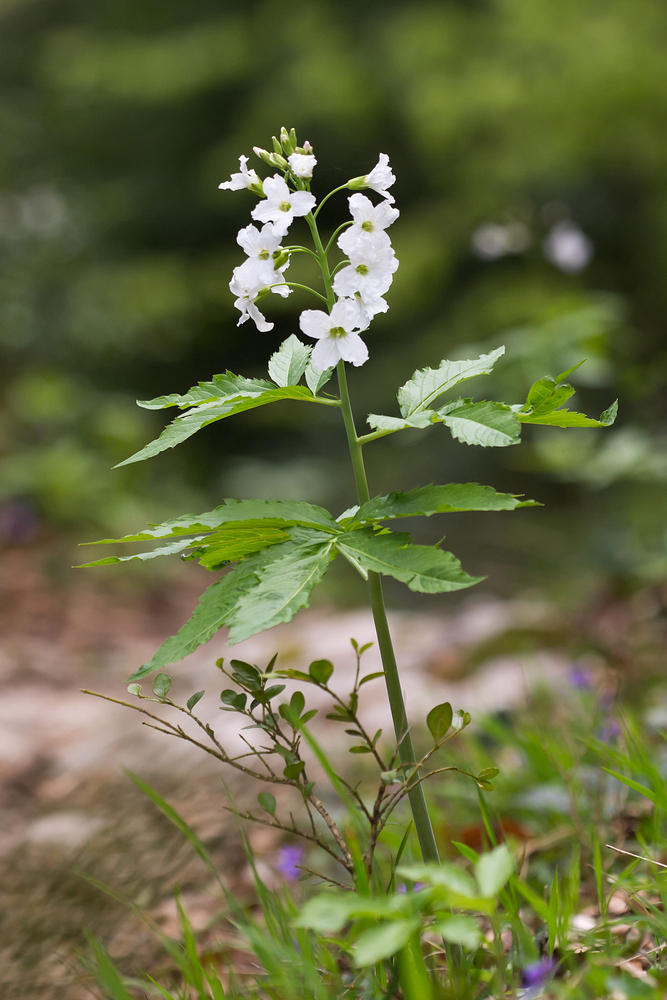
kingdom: Plantae
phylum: Tracheophyta
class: Magnoliopsida
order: Brassicales
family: Brassicaceae
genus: Cardamine
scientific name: Cardamine heptaphylla
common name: Pinnate coralroot
